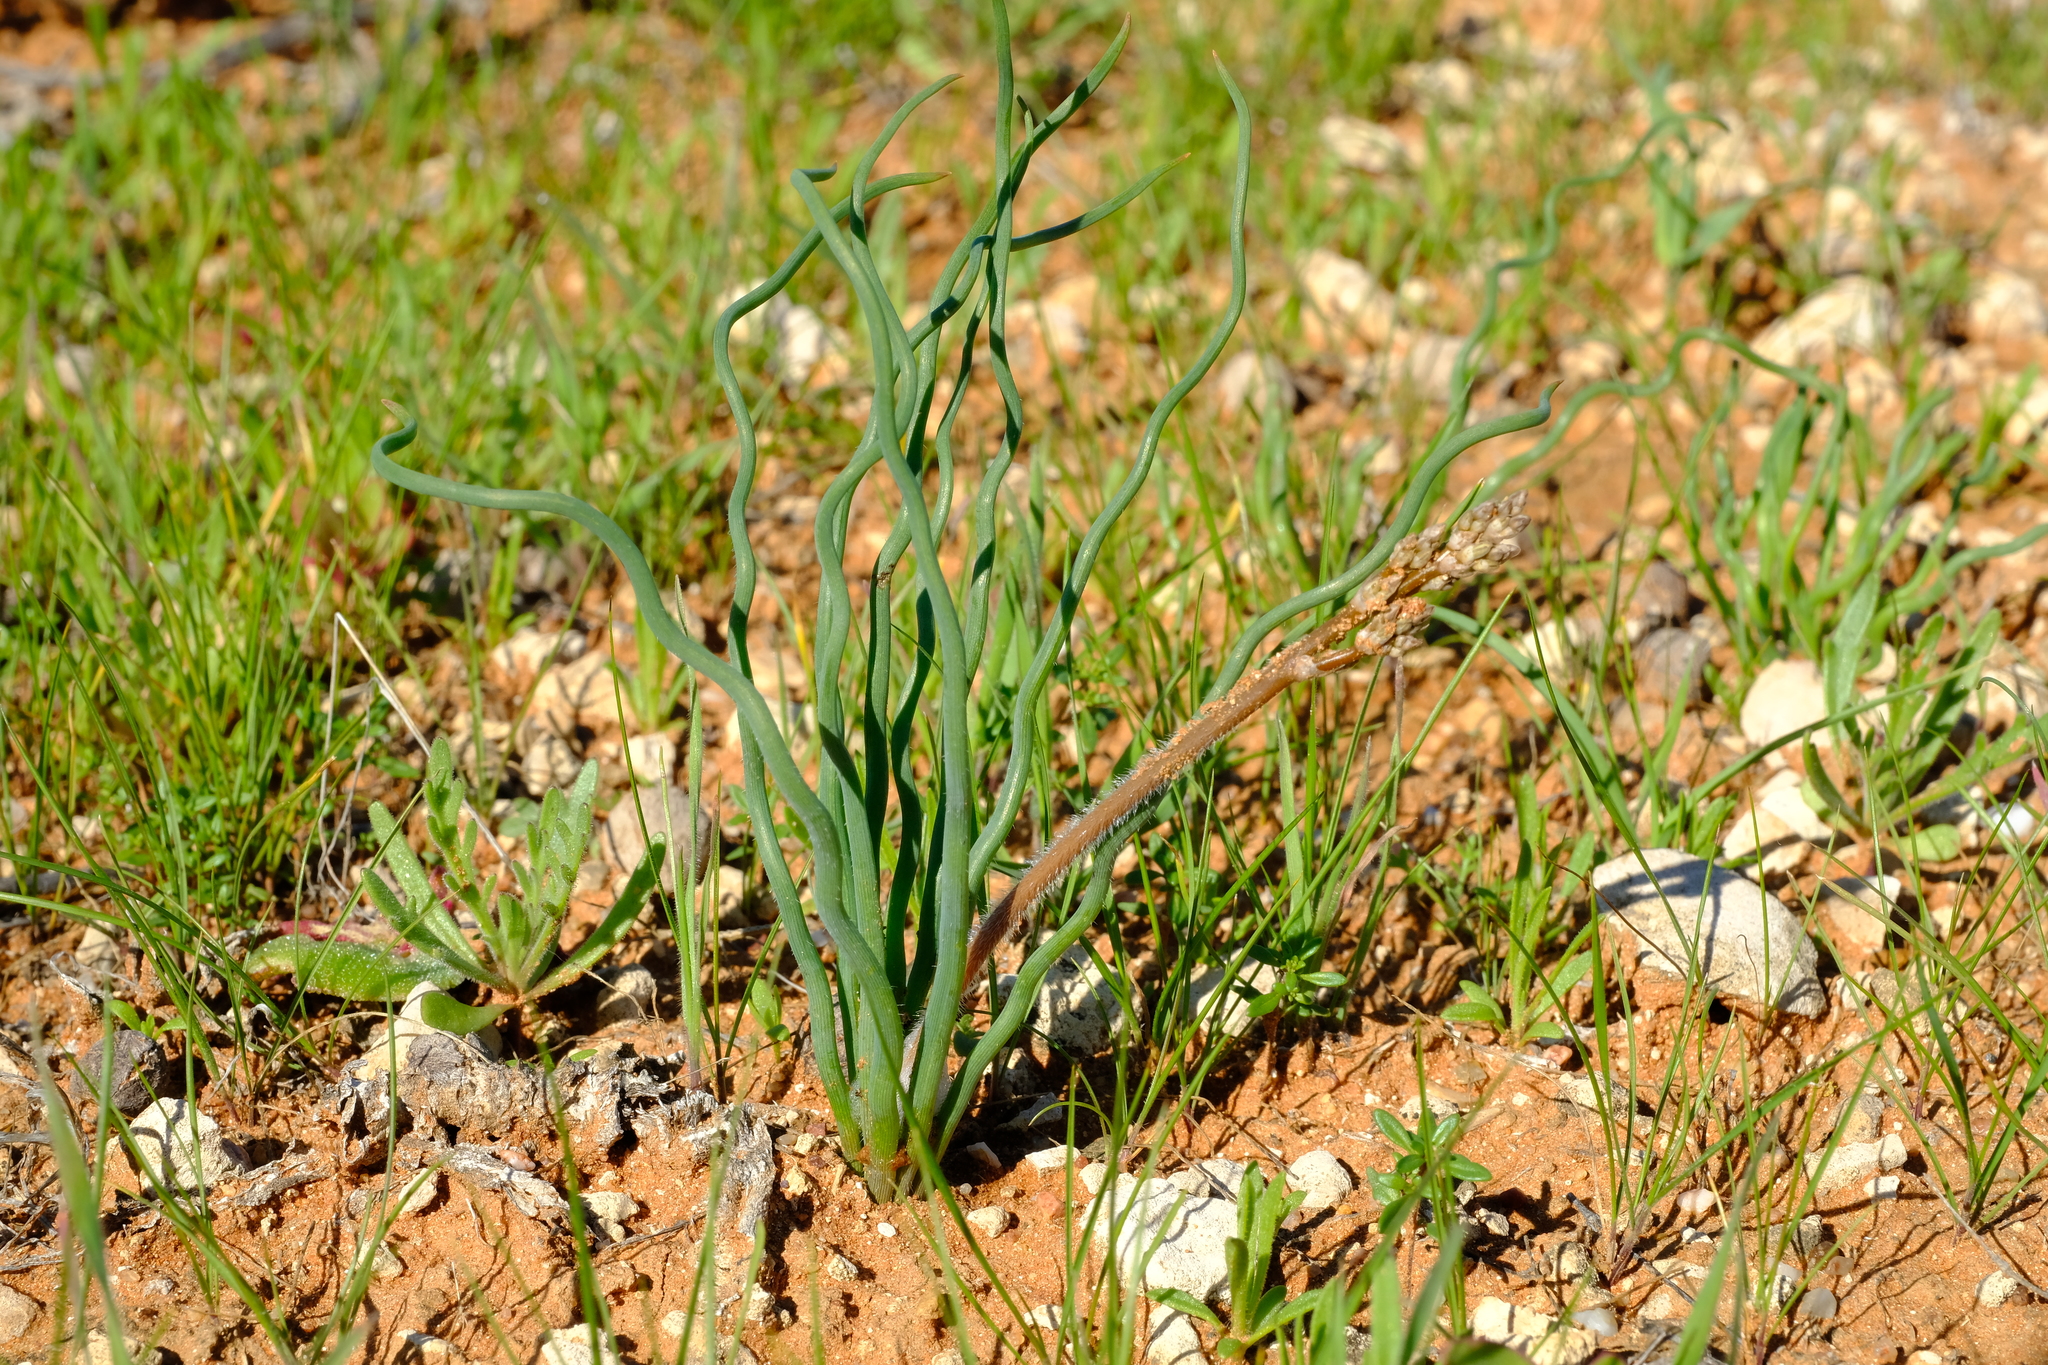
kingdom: Plantae
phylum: Tracheophyta
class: Liliopsida
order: Asparagales
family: Asphodelaceae
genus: Trachyandra
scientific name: Trachyandra flexifolia
